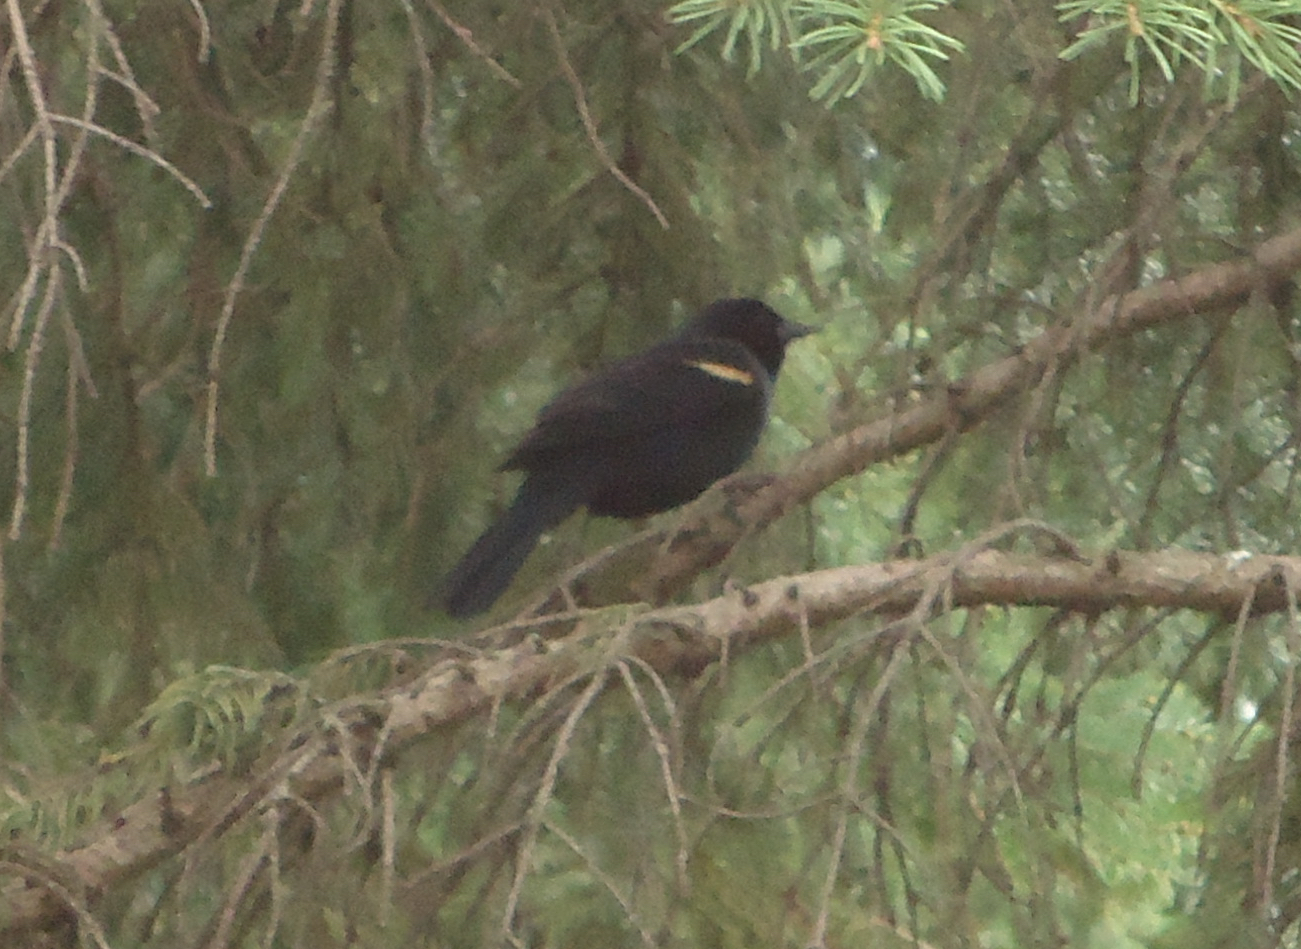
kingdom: Animalia
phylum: Chordata
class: Aves
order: Passeriformes
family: Icteridae
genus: Agelaius
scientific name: Agelaius phoeniceus
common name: Red-winged blackbird
